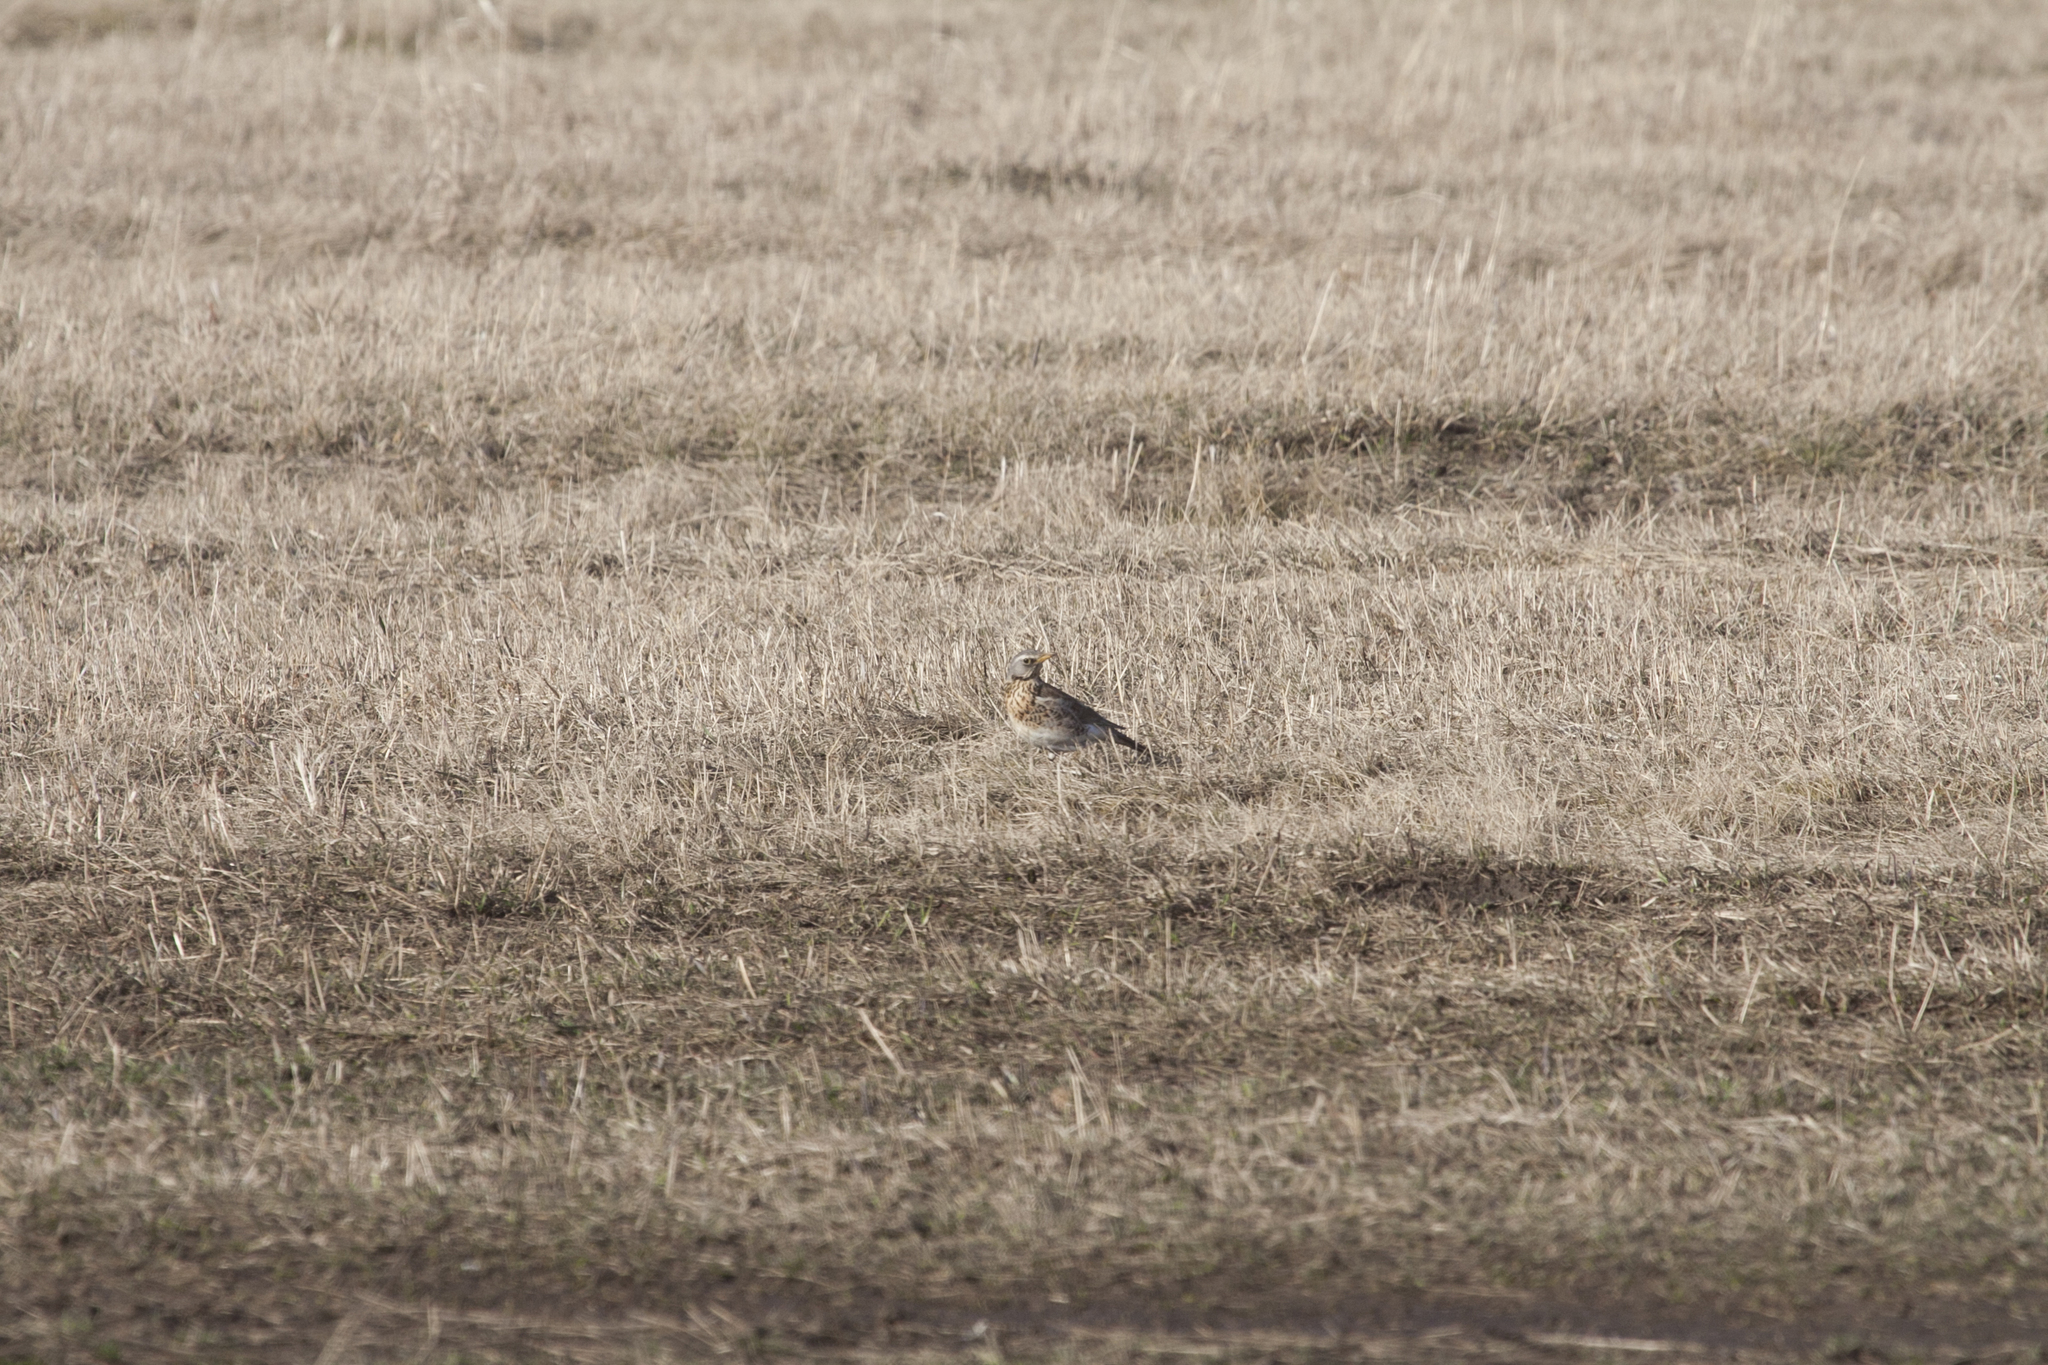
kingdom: Animalia
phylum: Chordata
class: Aves
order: Passeriformes
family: Turdidae
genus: Turdus
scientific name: Turdus pilaris
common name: Fieldfare
